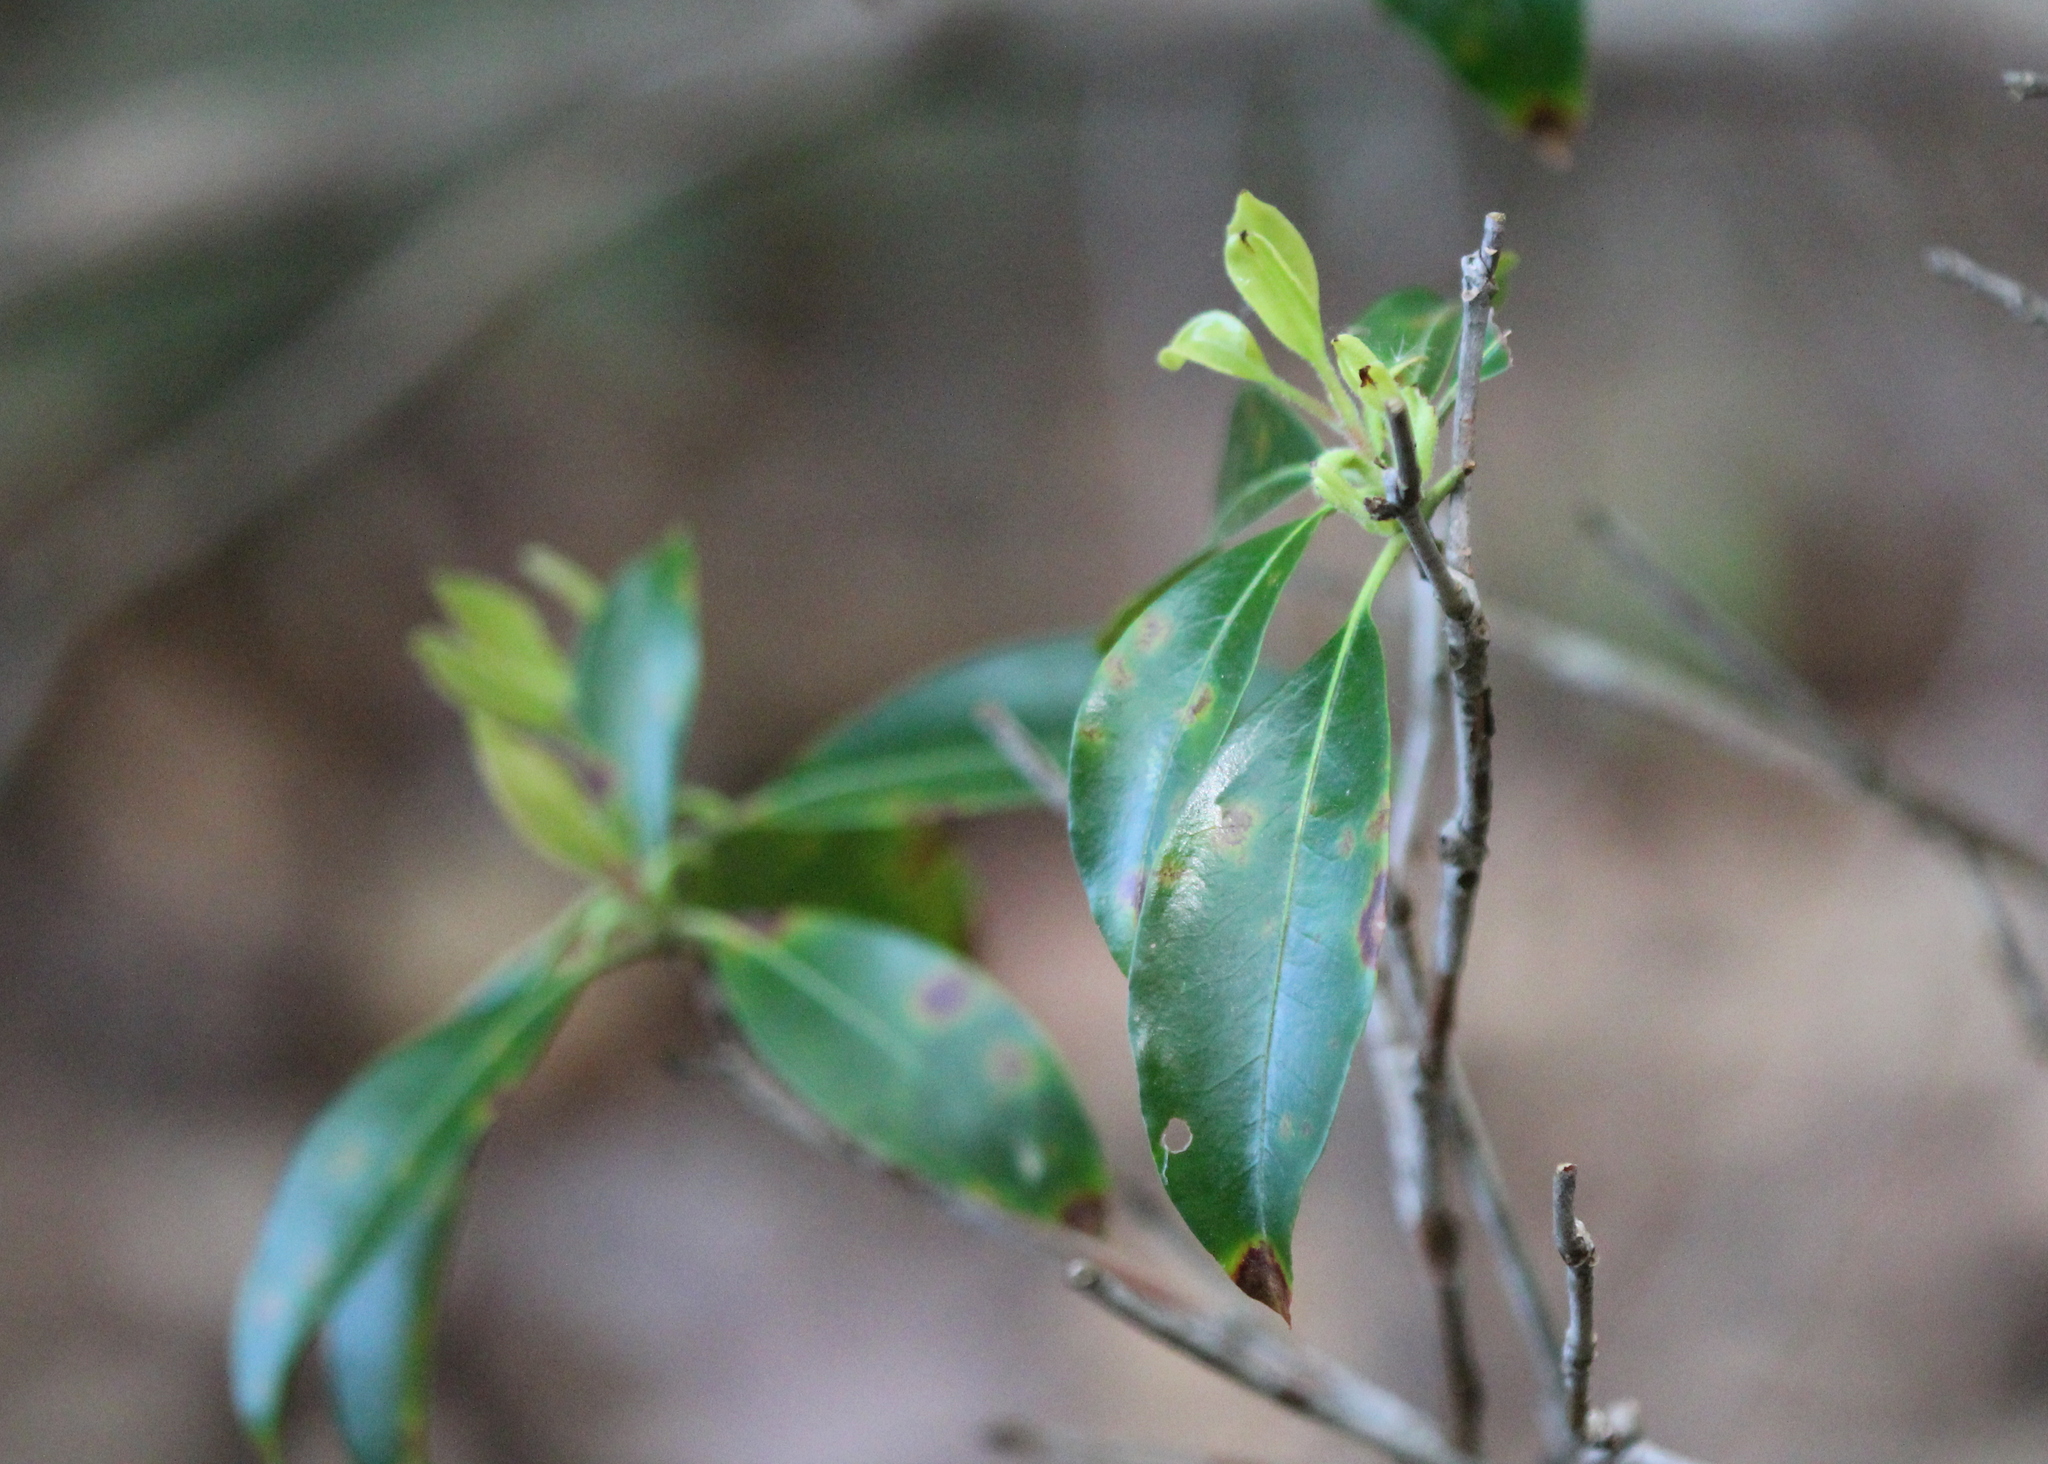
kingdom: Plantae
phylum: Tracheophyta
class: Magnoliopsida
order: Ericales
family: Ericaceae
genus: Kalmia
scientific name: Kalmia latifolia
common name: Mountain-laurel
